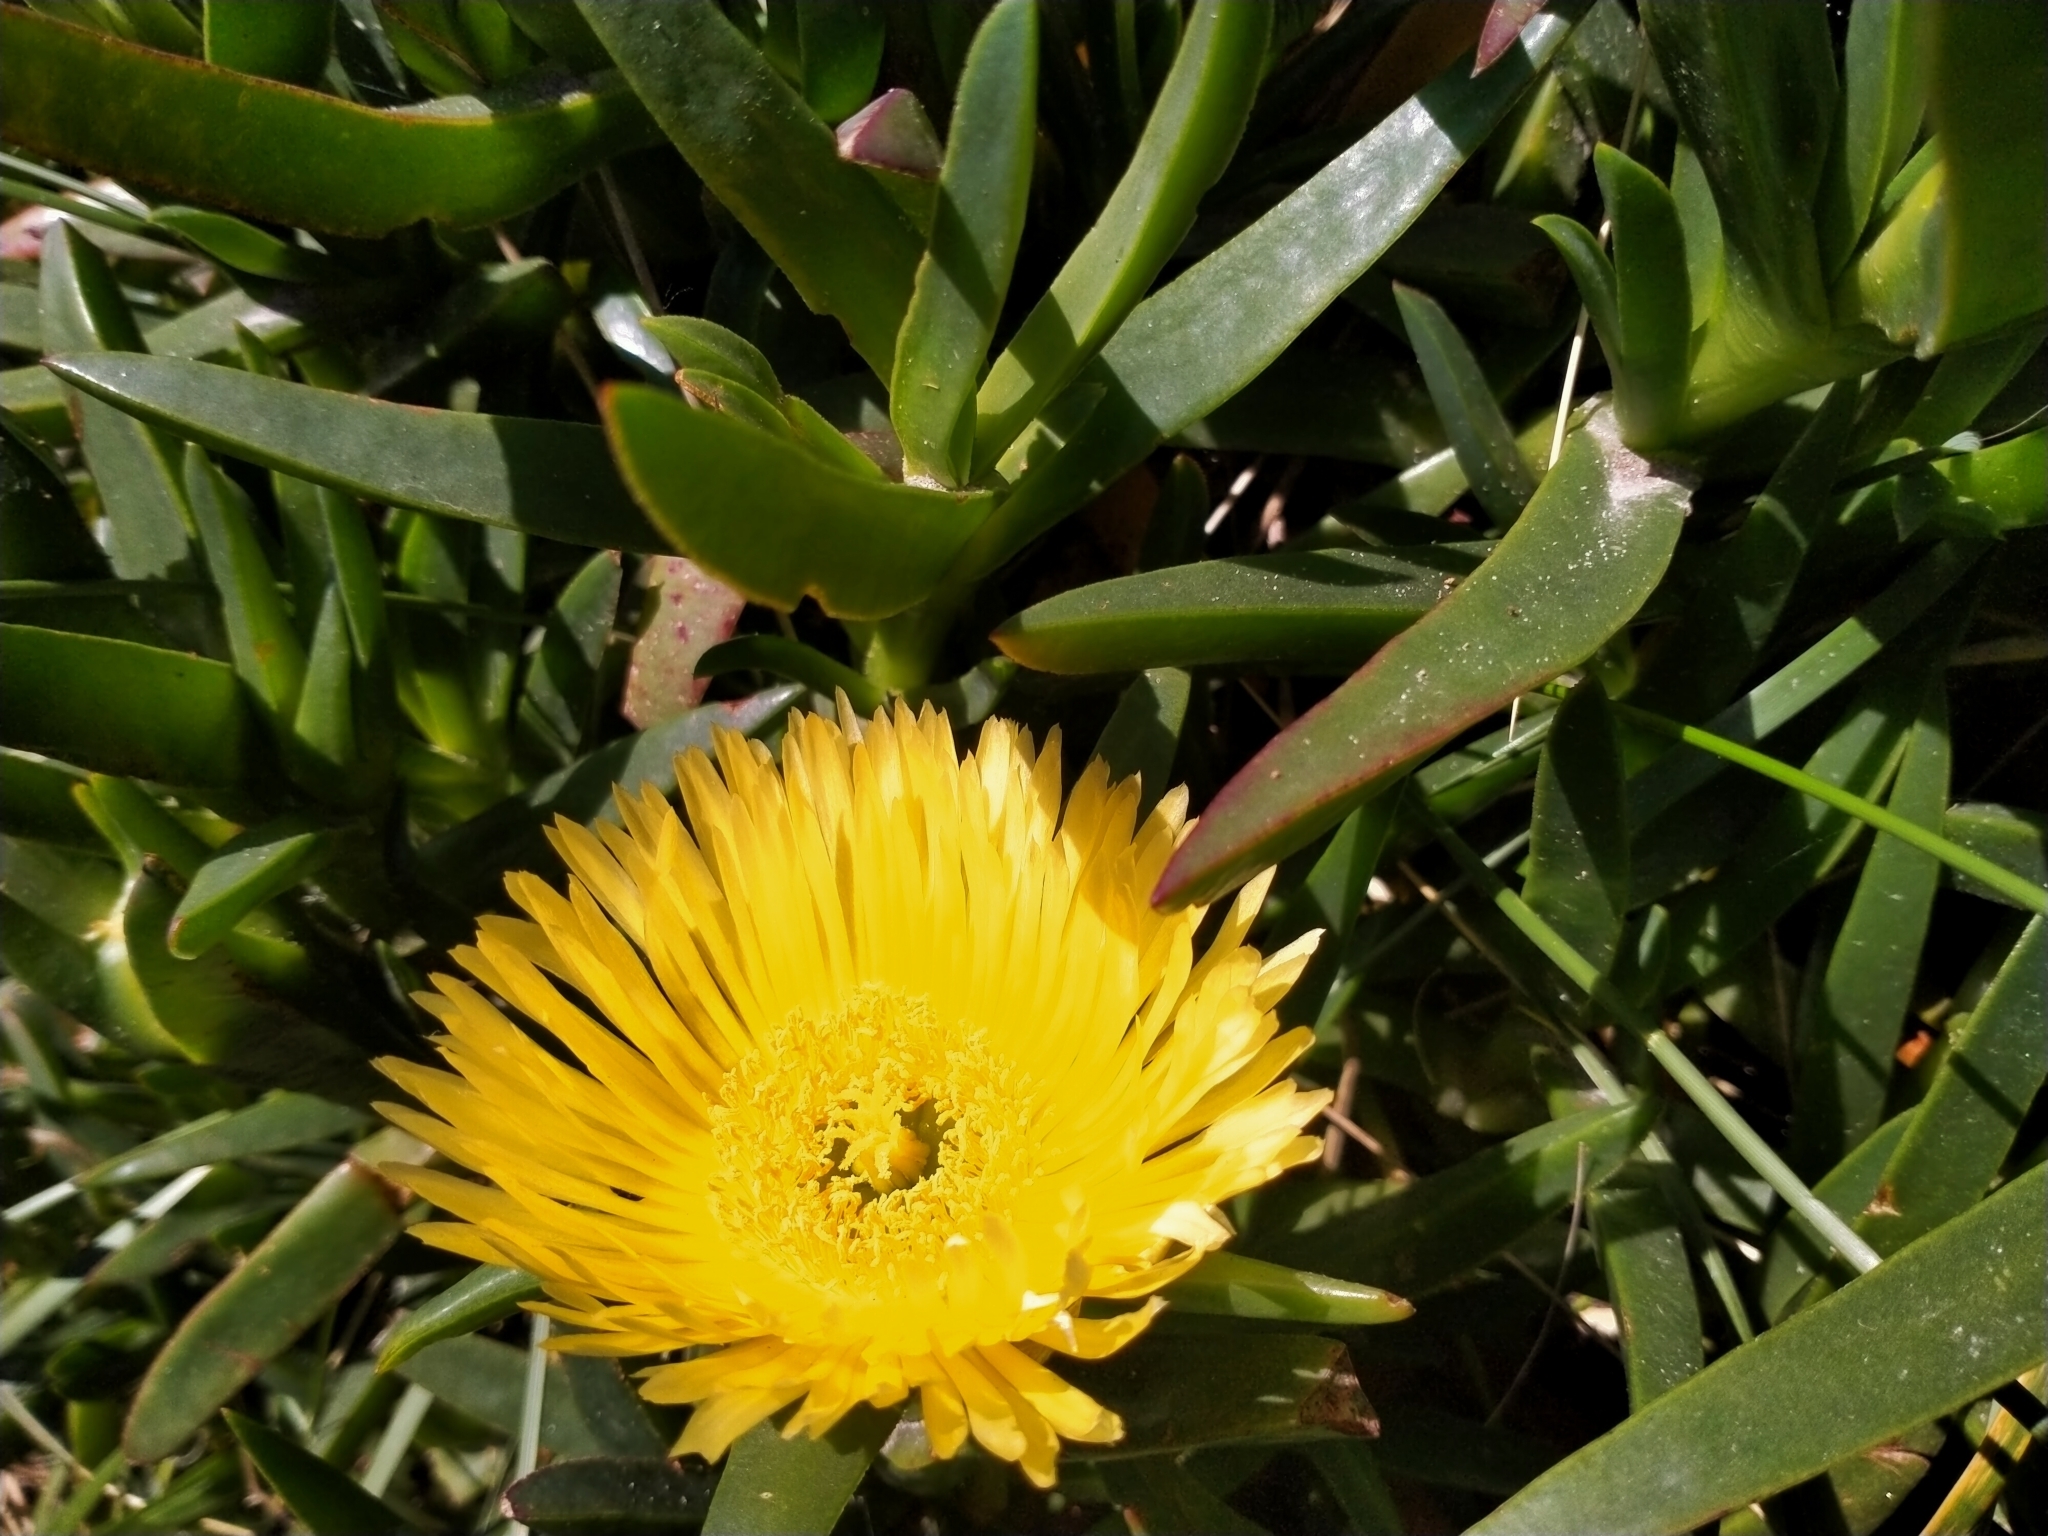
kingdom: Plantae
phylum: Tracheophyta
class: Magnoliopsida
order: Caryophyllales
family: Aizoaceae
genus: Carpobrotus
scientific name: Carpobrotus edulis
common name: Hottentot-fig
